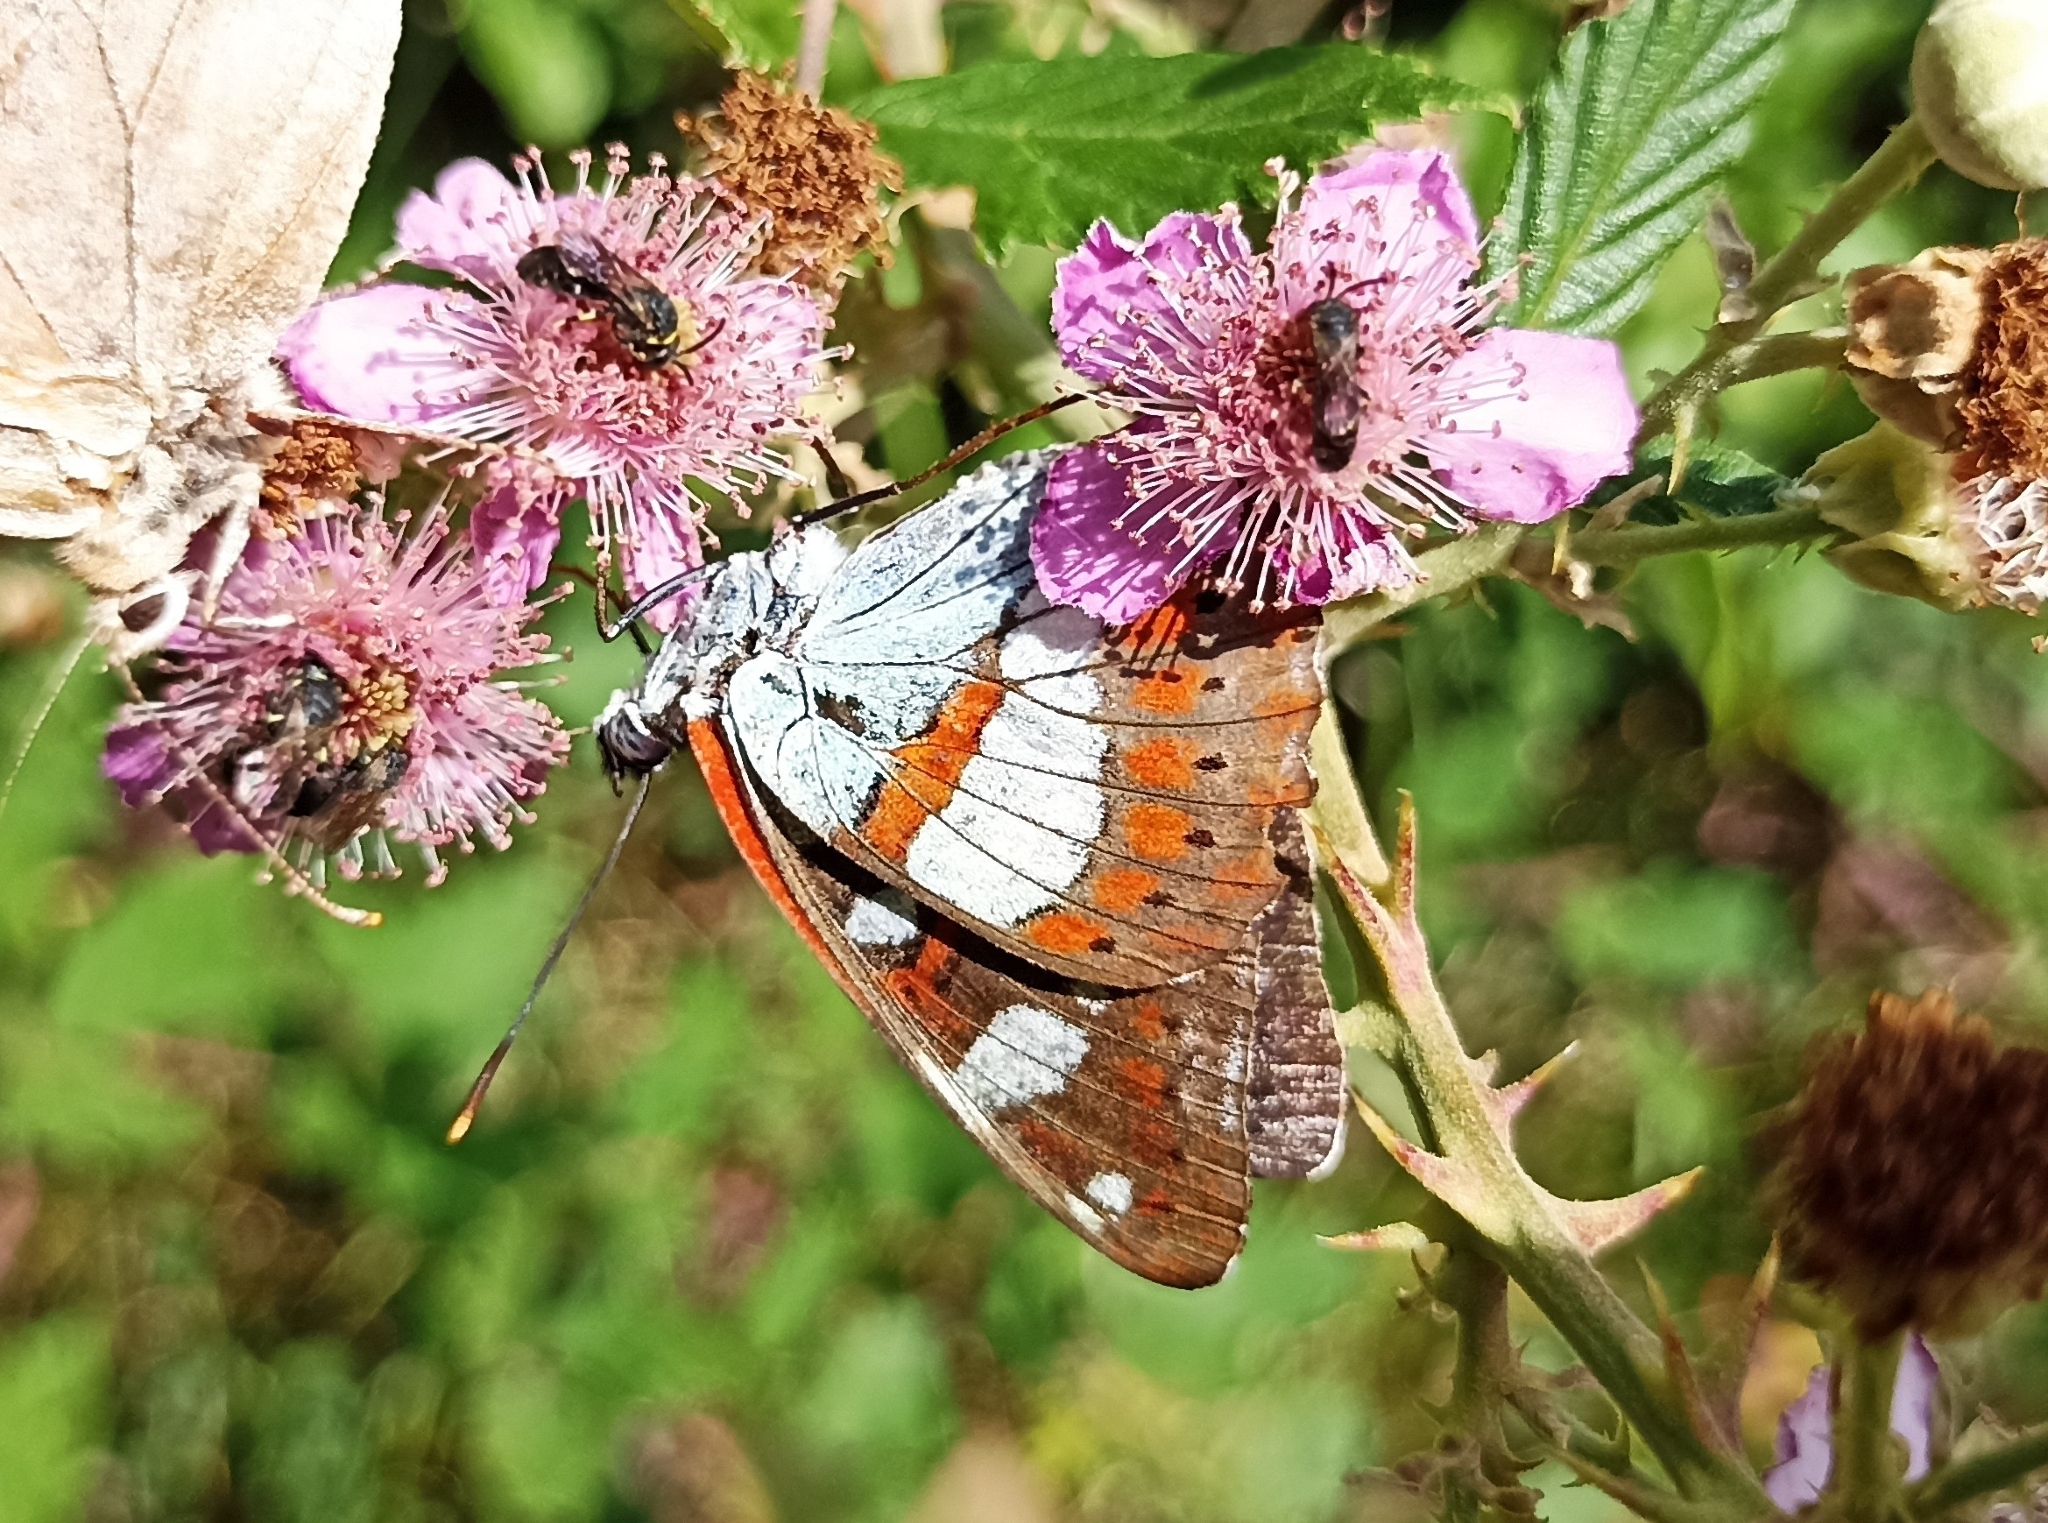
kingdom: Animalia
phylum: Arthropoda
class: Insecta
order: Lepidoptera
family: Nymphalidae
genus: Limenitis
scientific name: Limenitis reducta
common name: Southern white admiral
